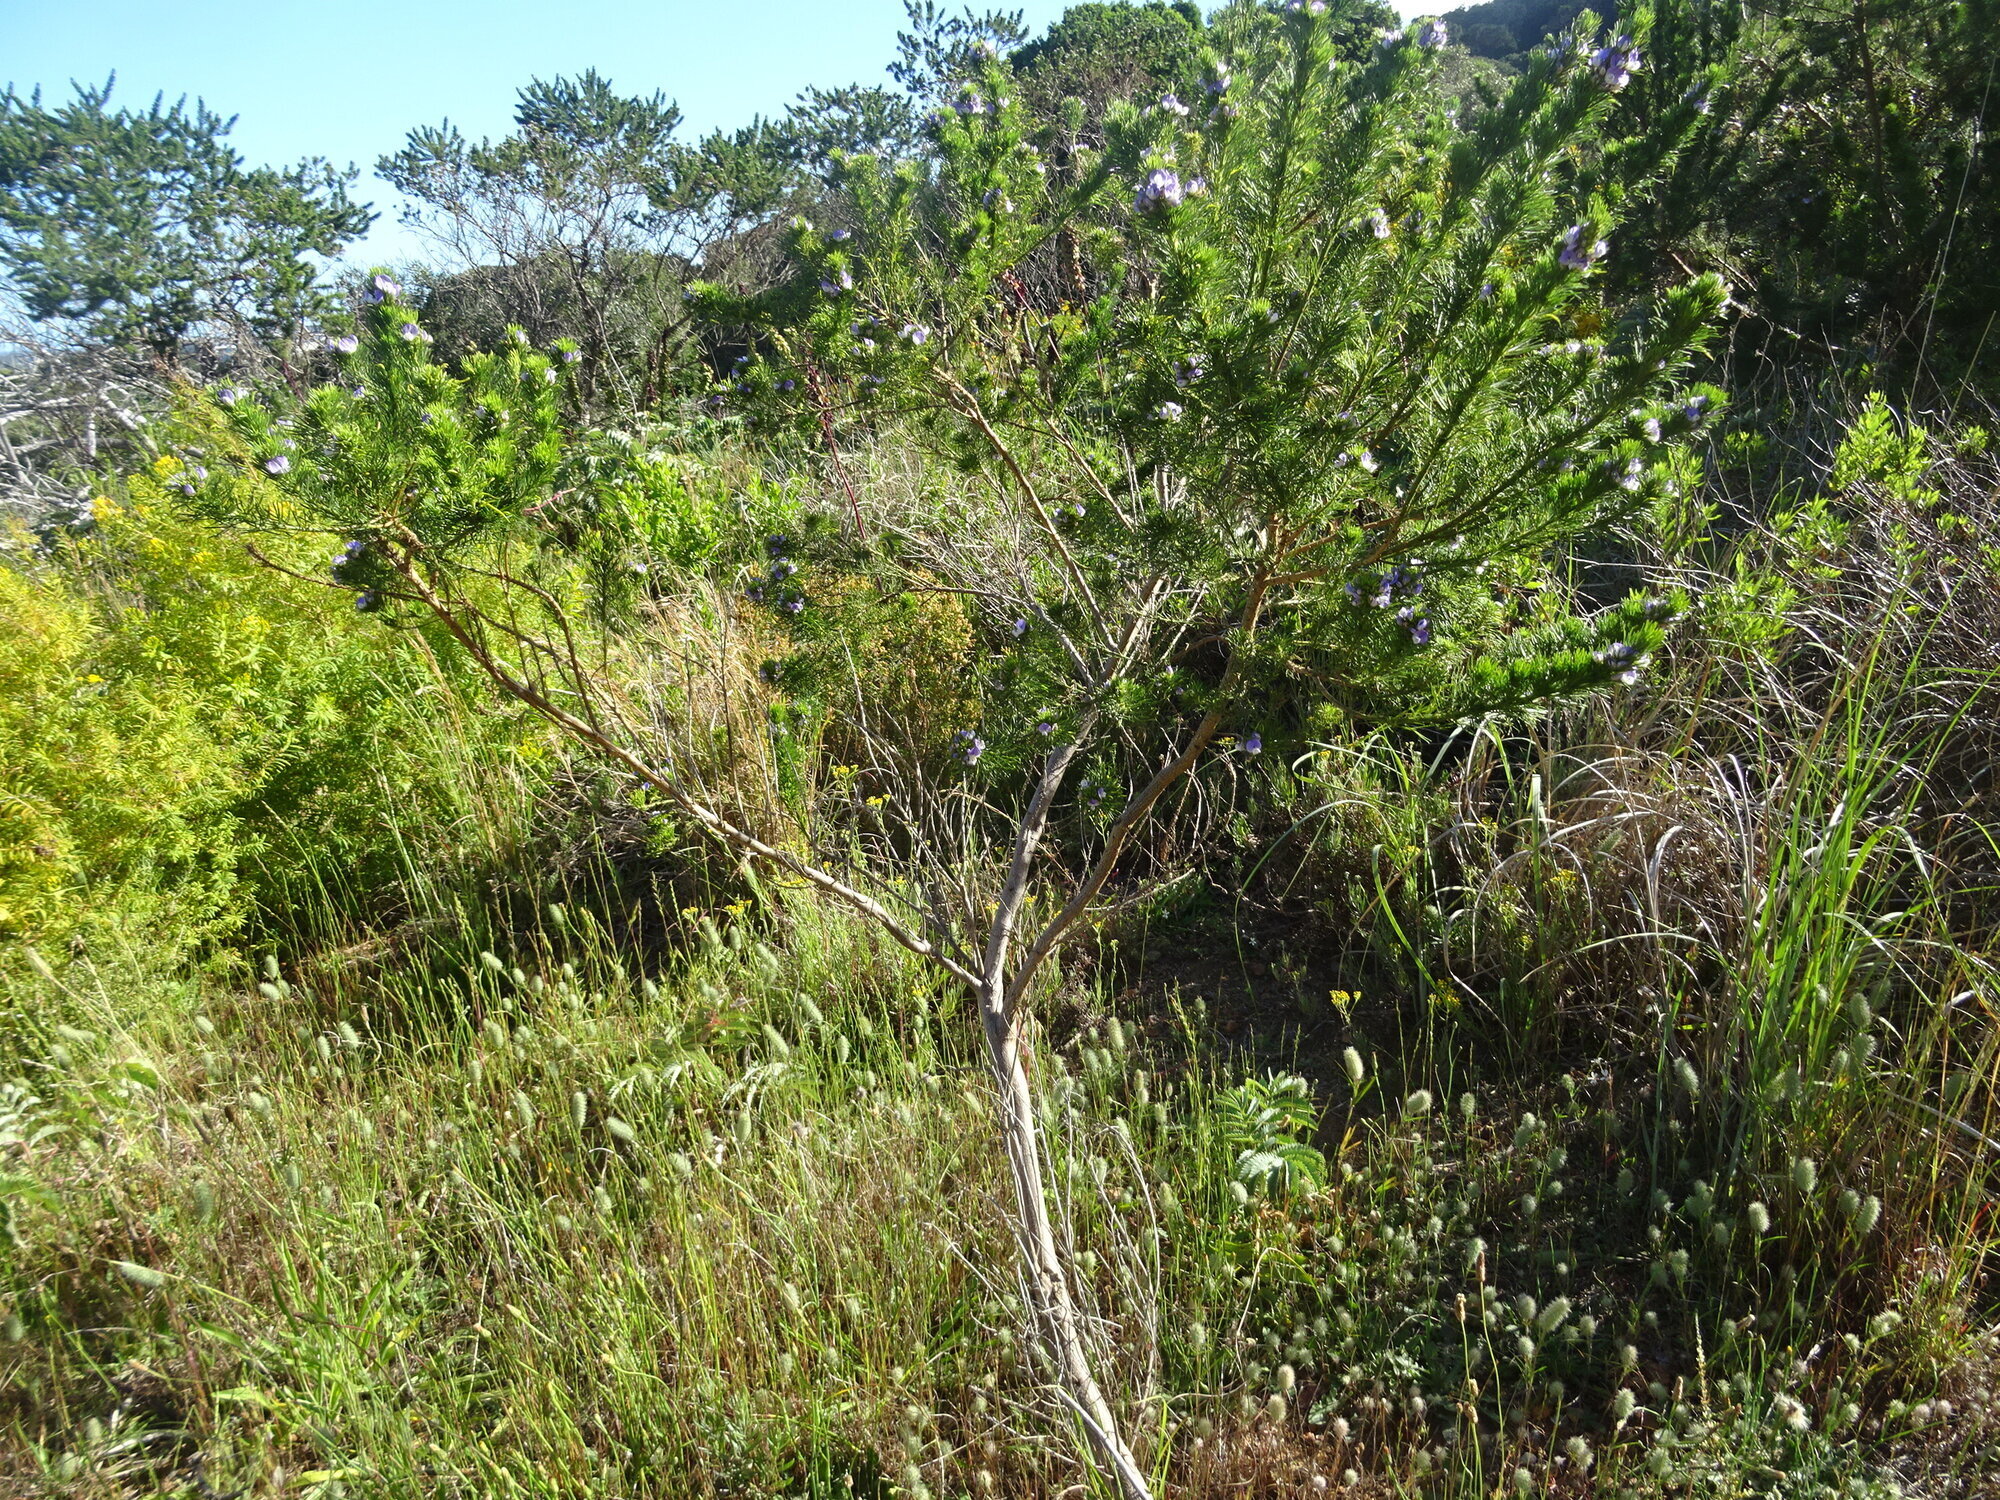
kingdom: Plantae
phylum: Tracheophyta
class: Magnoliopsida
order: Fabales
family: Fabaceae
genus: Psoralea
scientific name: Psoralea pinnata
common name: African scurfpea
